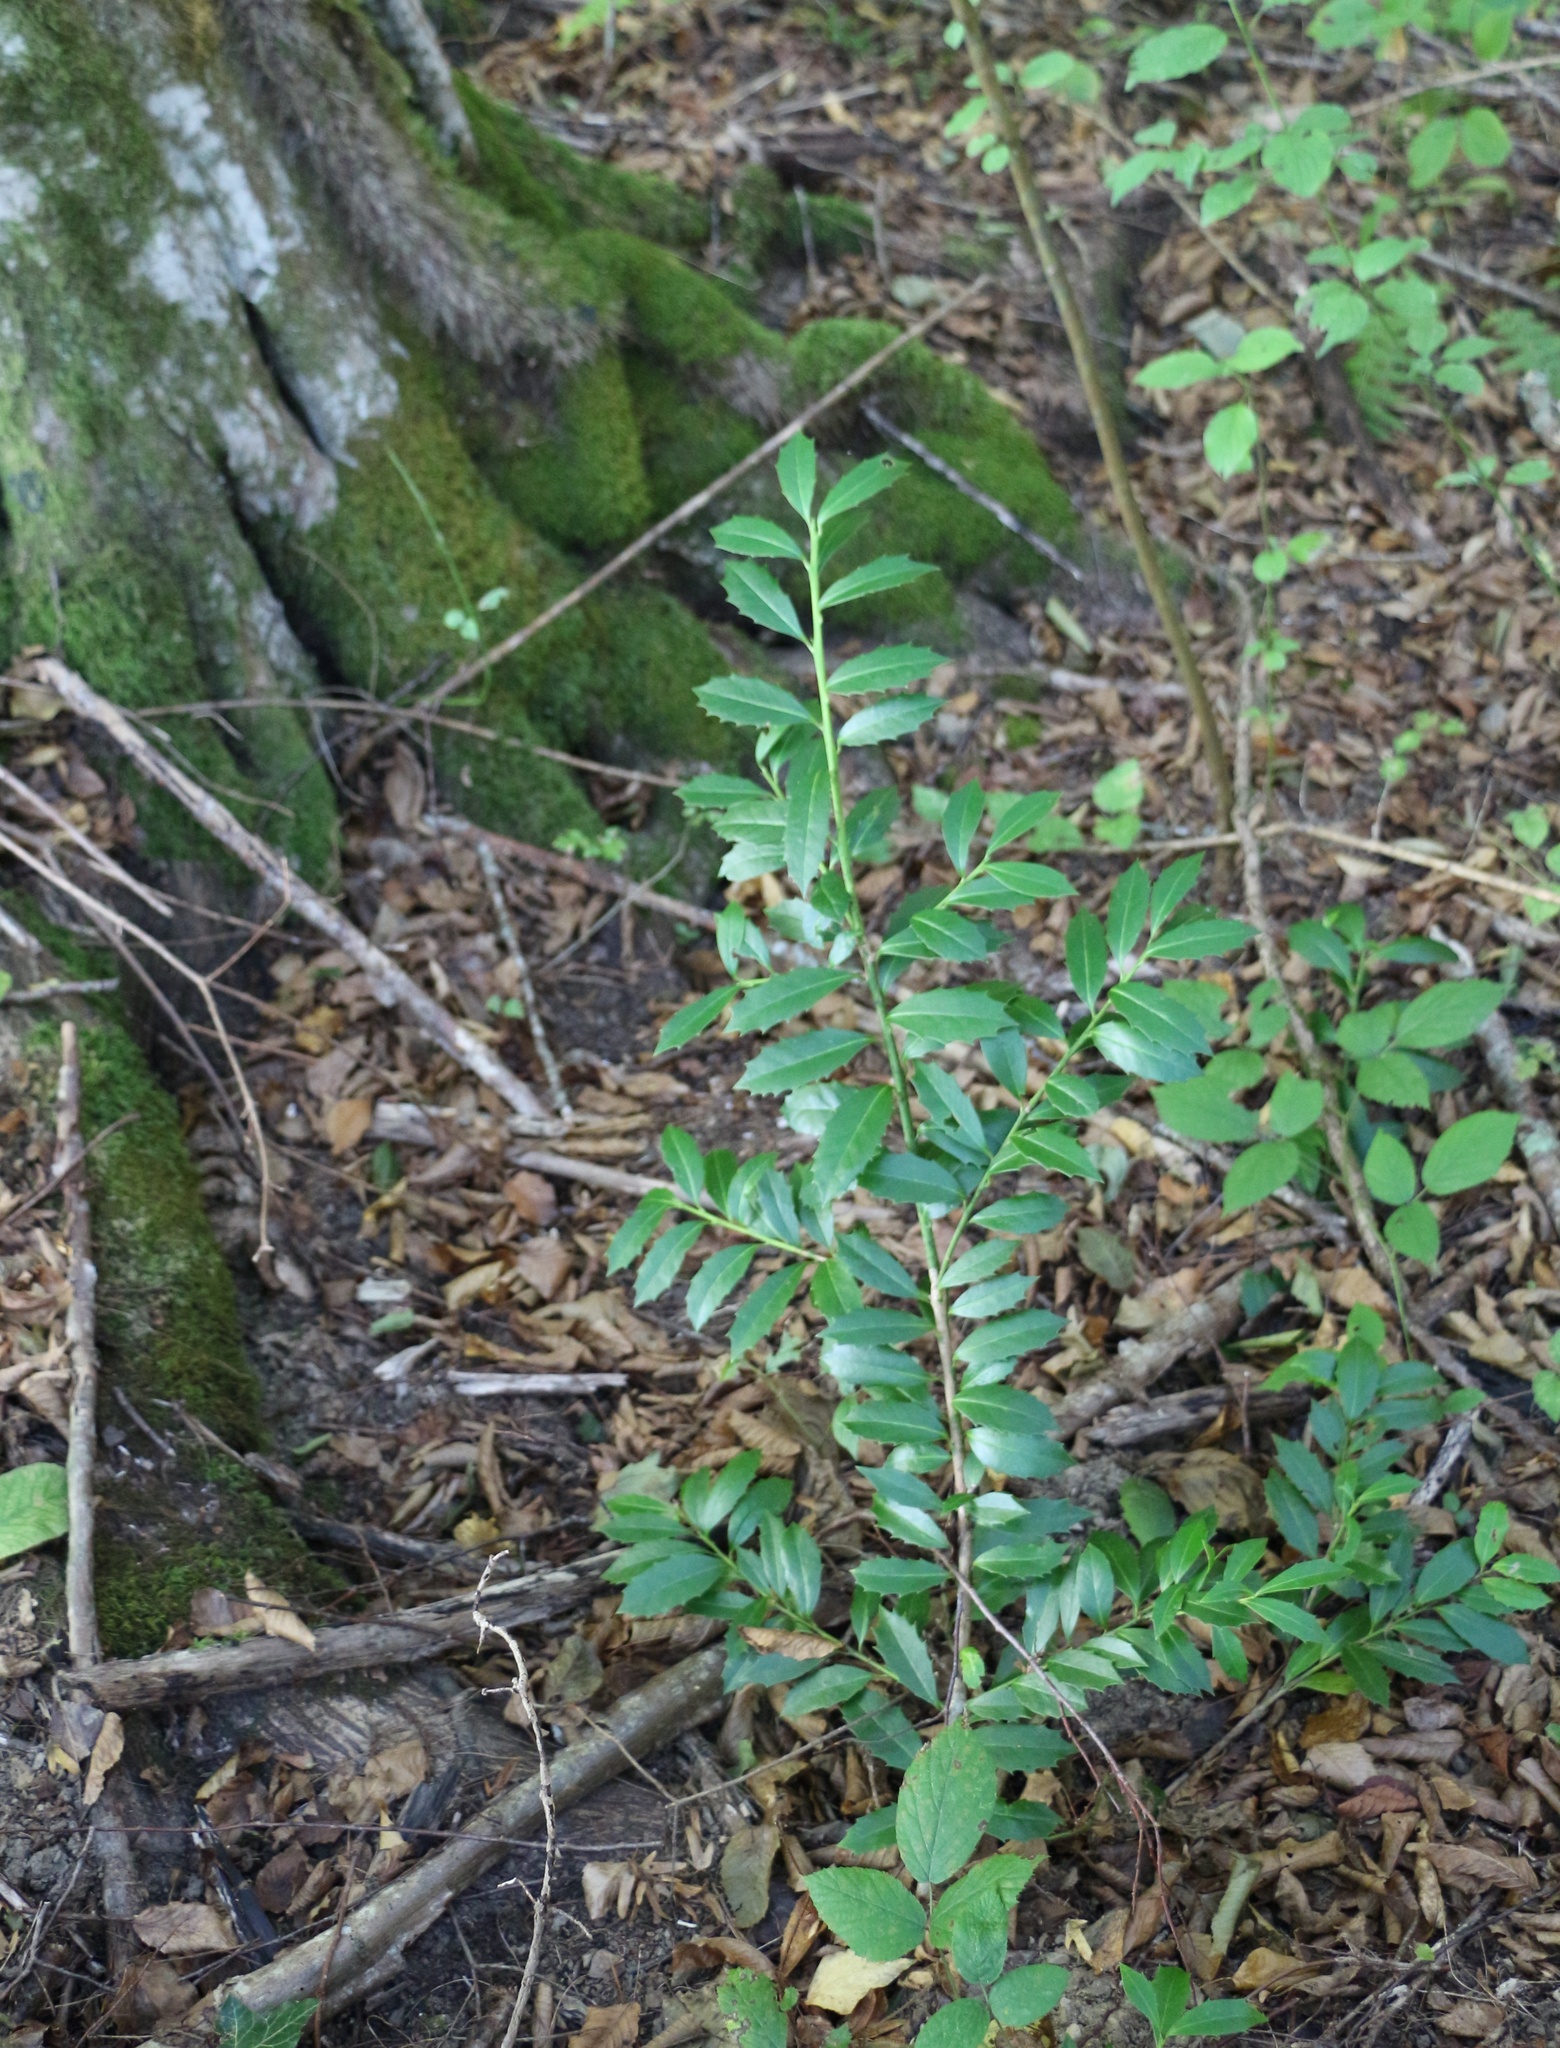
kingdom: Plantae
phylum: Tracheophyta
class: Magnoliopsida
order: Aquifoliales
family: Aquifoliaceae
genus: Ilex
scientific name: Ilex colchica
